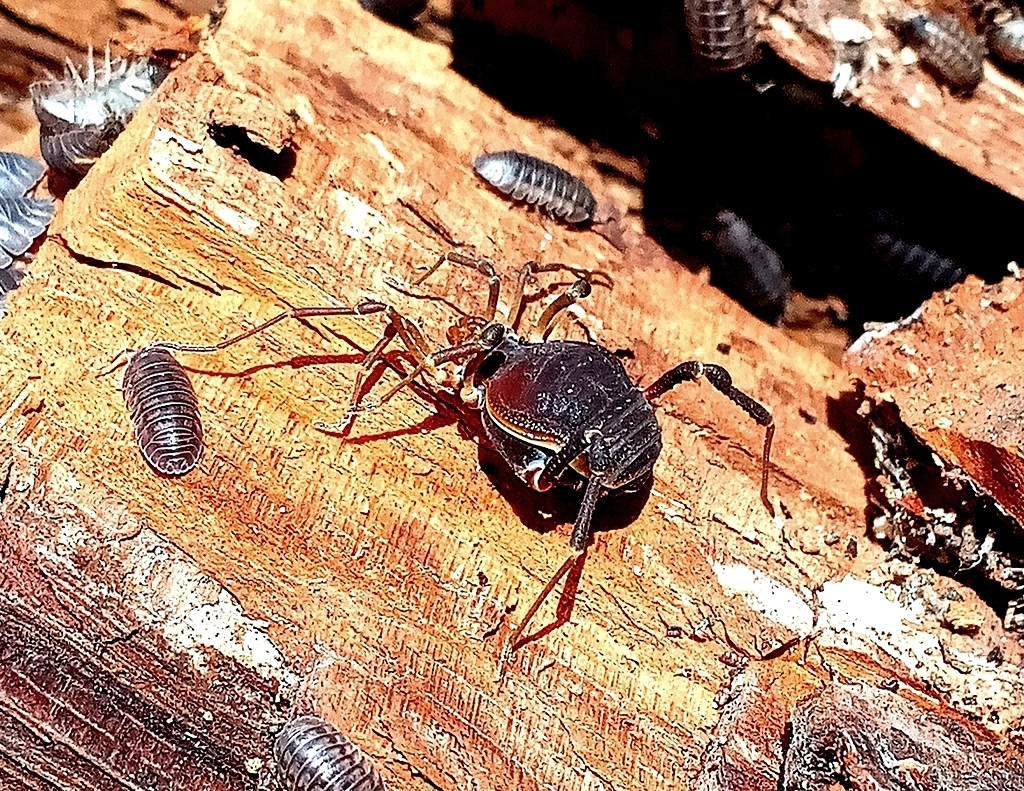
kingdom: Animalia
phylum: Arthropoda
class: Arachnida
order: Opiliones
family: Gonyleptidae
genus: Acanthopachylus
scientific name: Acanthopachylus robustus
